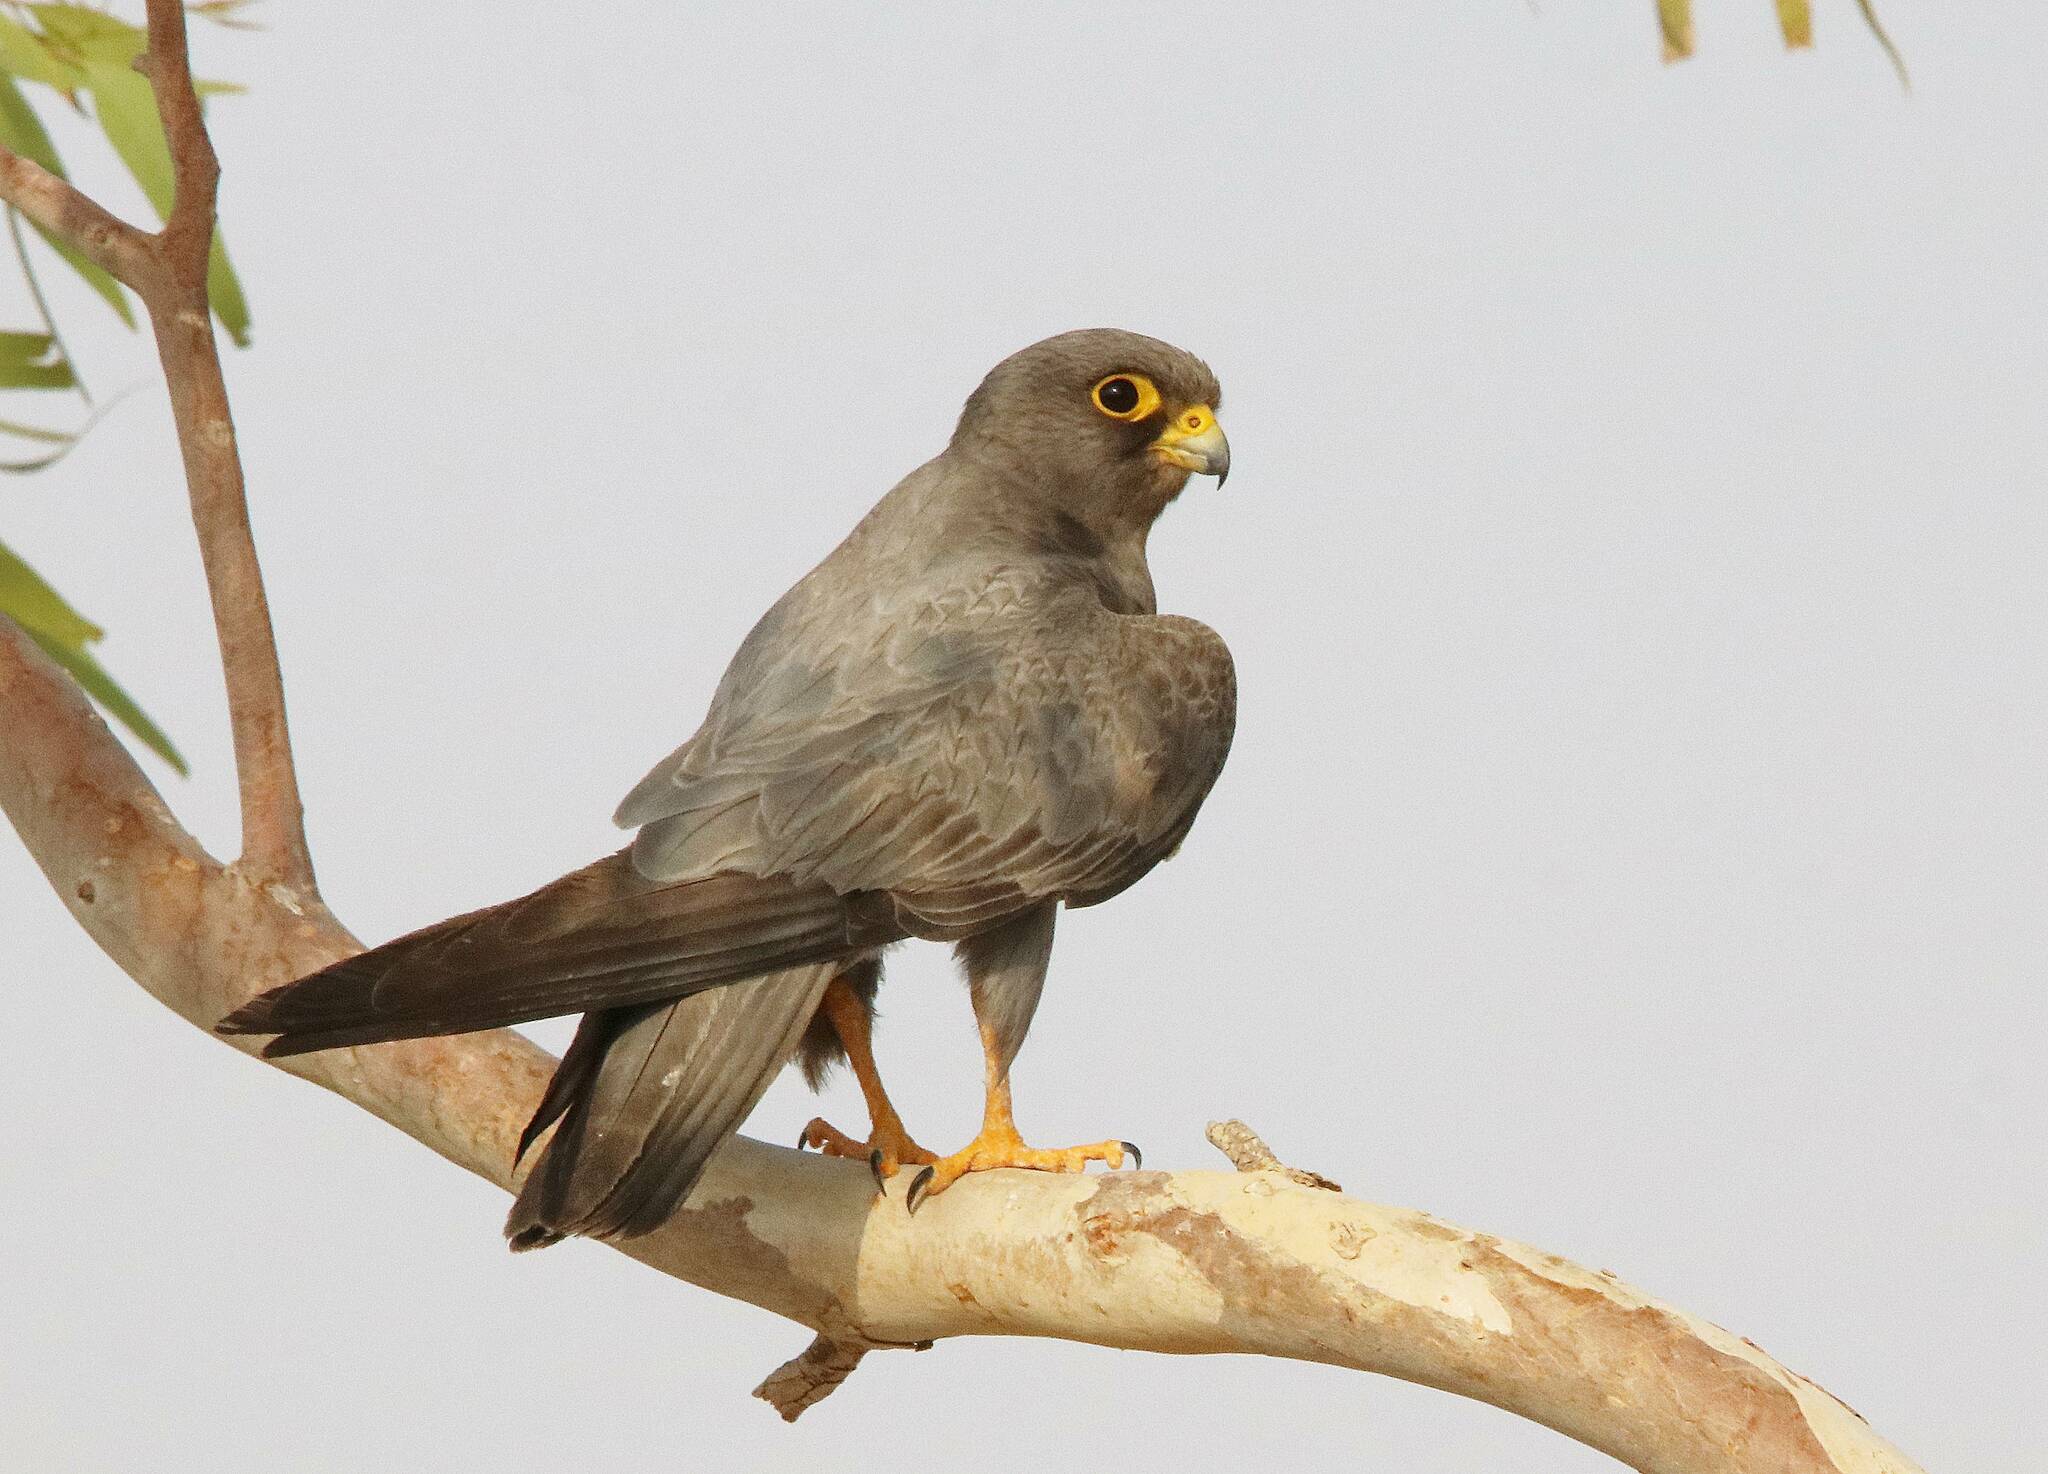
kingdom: Animalia
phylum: Chordata
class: Aves
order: Falconiformes
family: Falconidae
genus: Falco
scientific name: Falco concolor
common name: Sooty falcon
